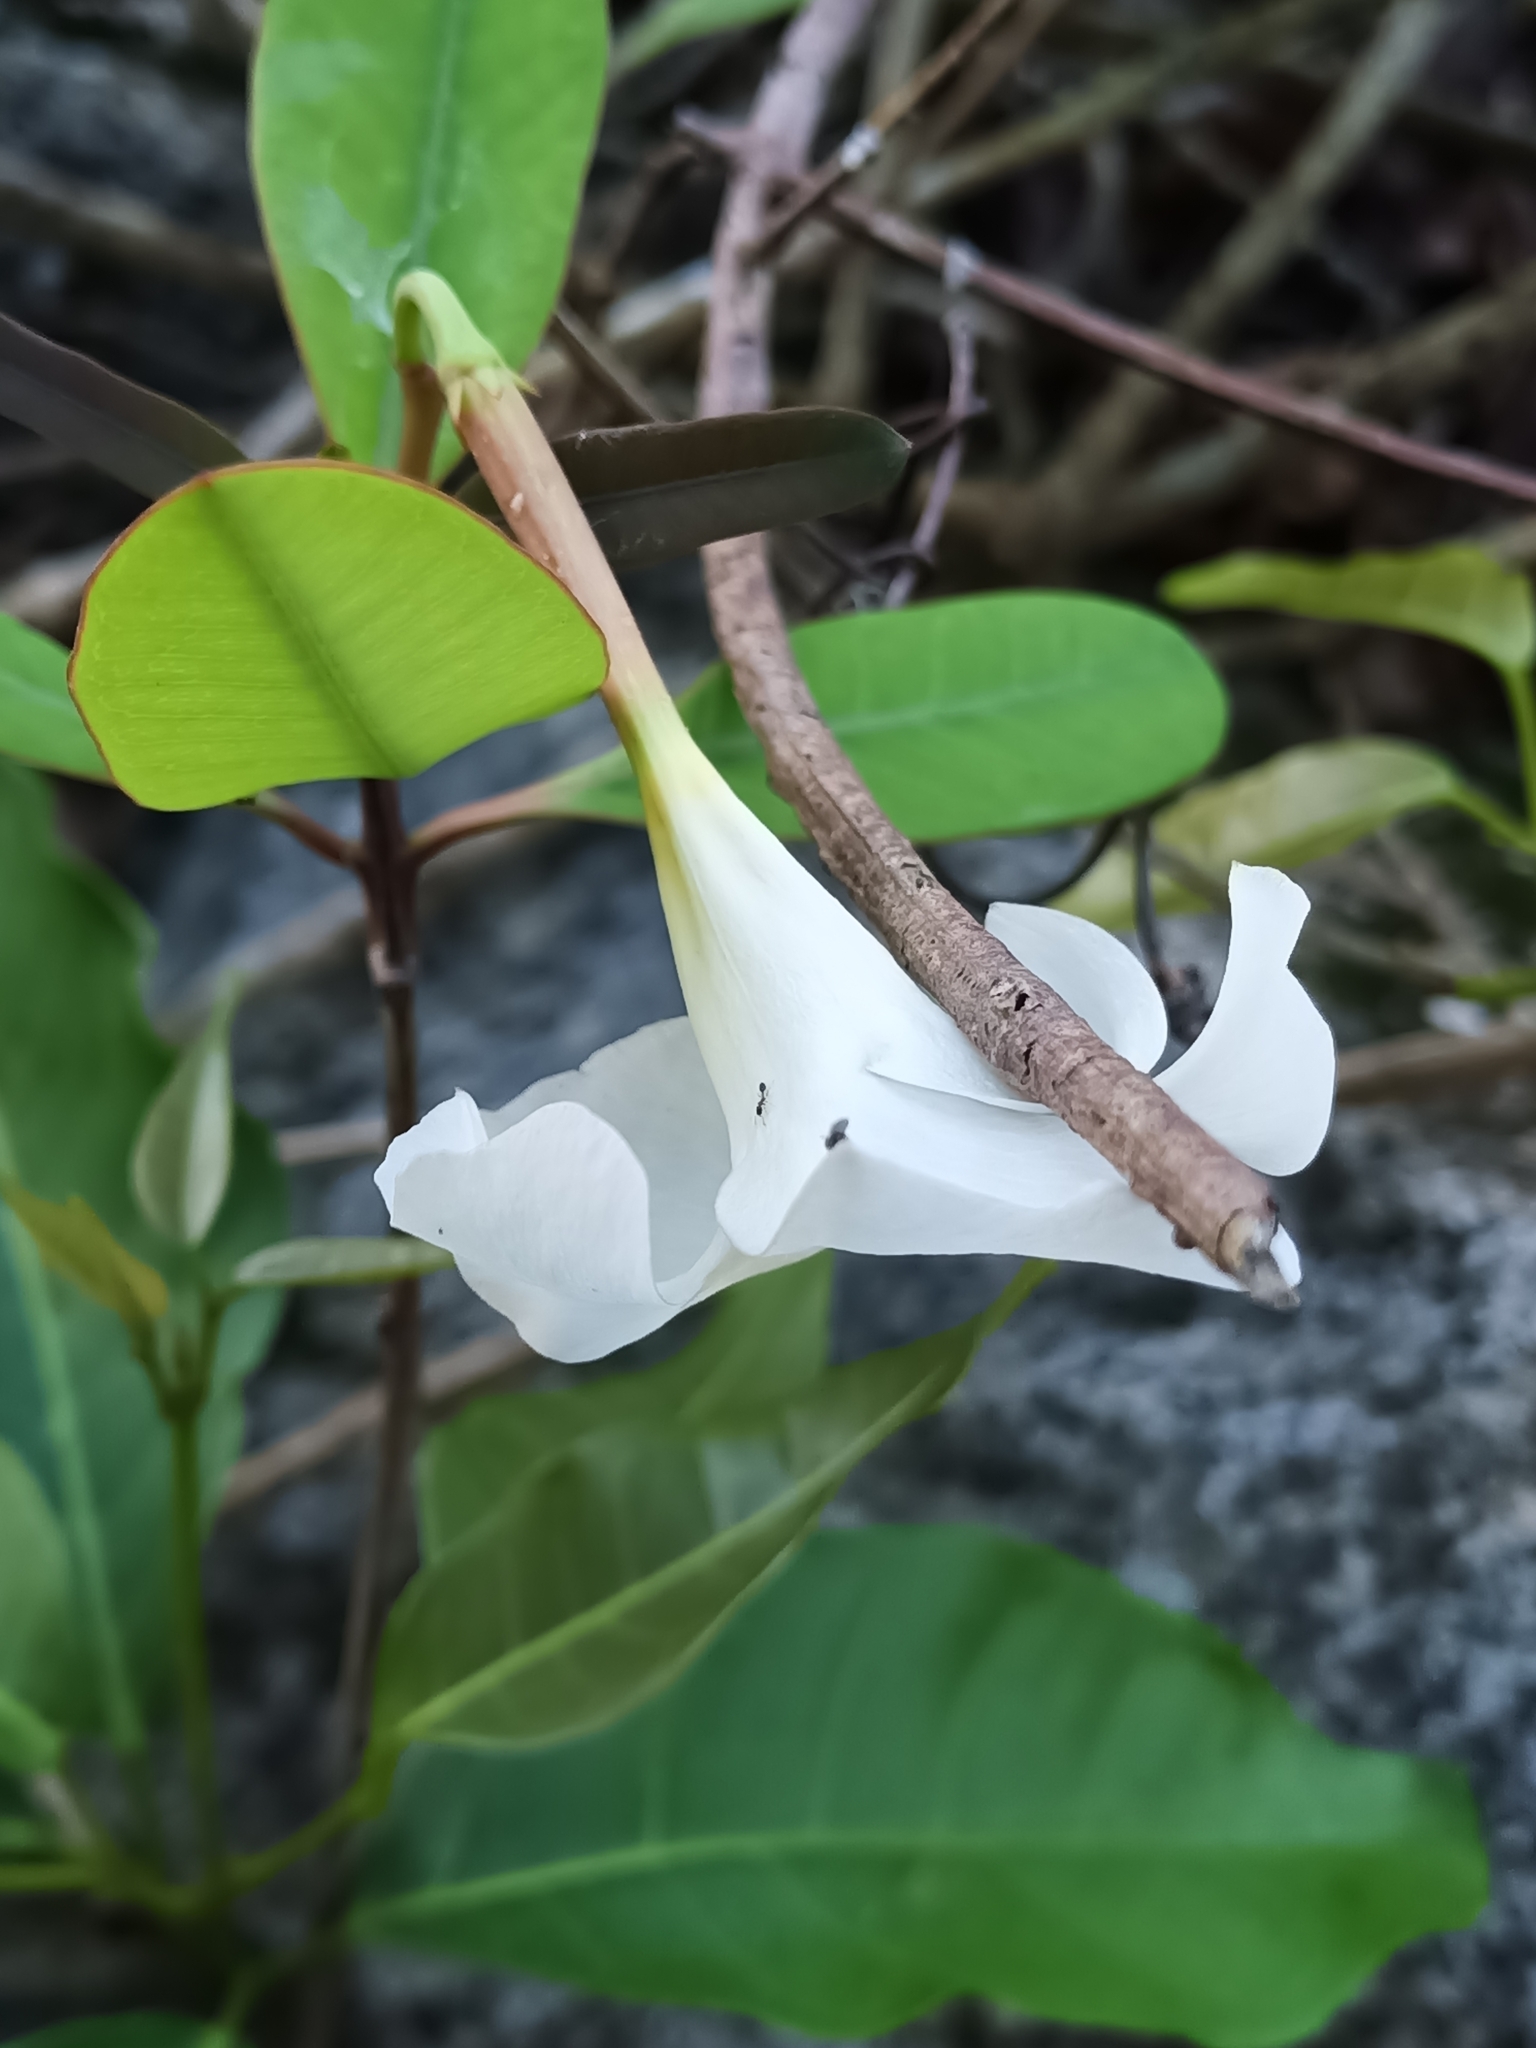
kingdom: Plantae
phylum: Tracheophyta
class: Magnoliopsida
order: Gentianales
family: Apocynaceae
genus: Rhabdadenia
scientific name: Rhabdadenia biflora
